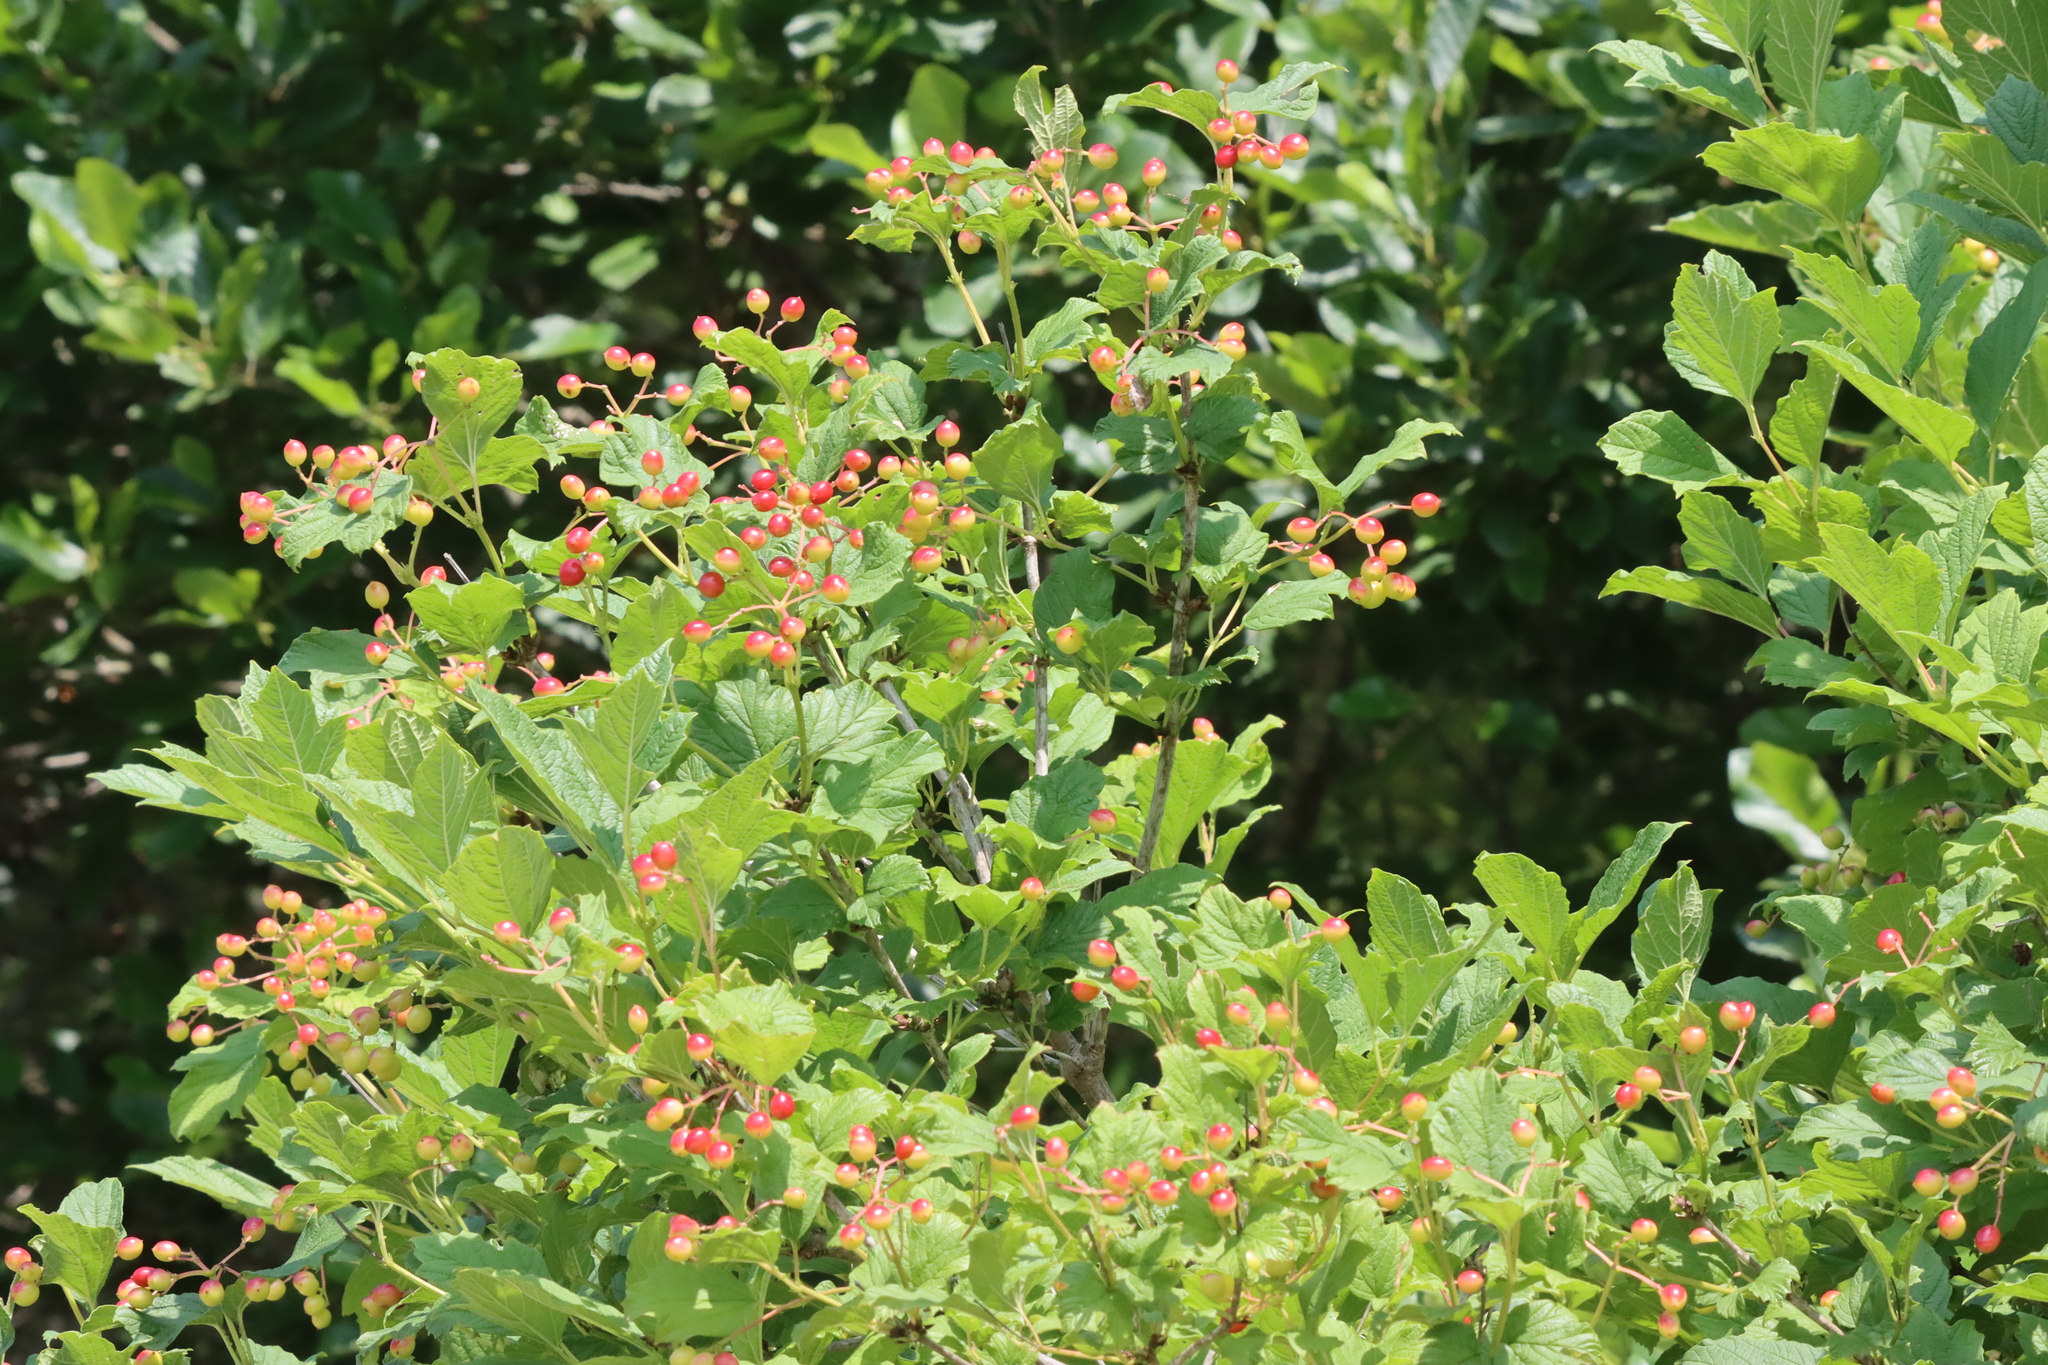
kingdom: Plantae
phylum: Tracheophyta
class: Magnoliopsida
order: Dipsacales
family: Viburnaceae
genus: Viburnum
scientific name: Viburnum opulus
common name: Guelder-rose
